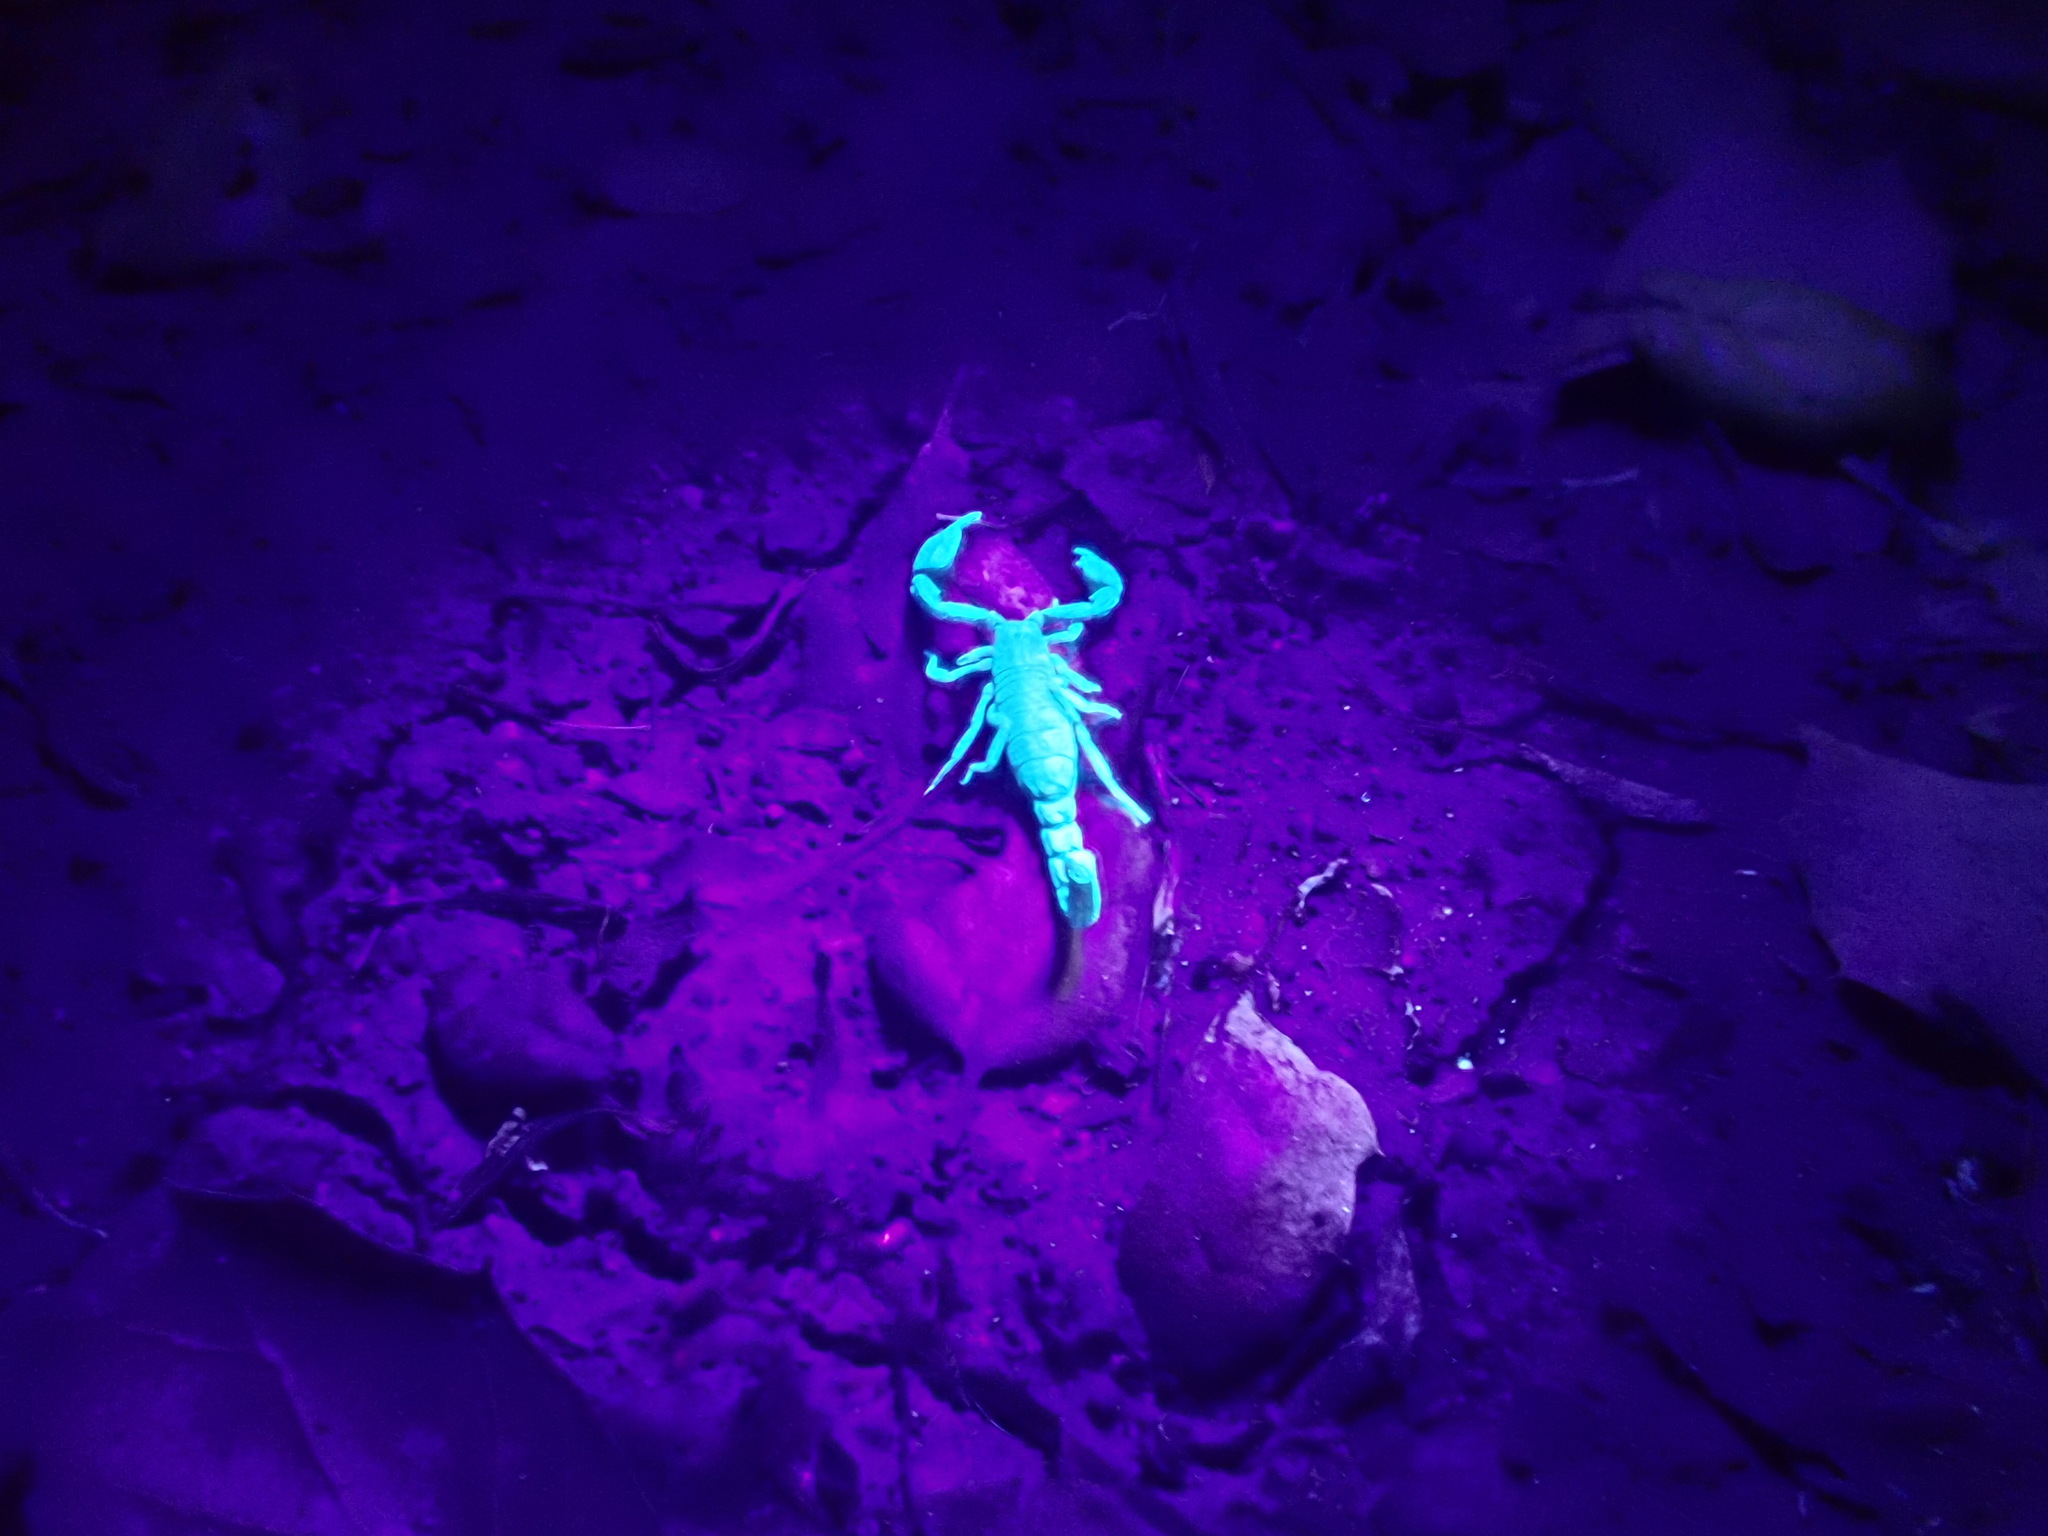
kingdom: Animalia
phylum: Arthropoda
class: Arachnida
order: Scorpiones
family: Chactidae
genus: Uroctonus
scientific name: Uroctonus mordax
